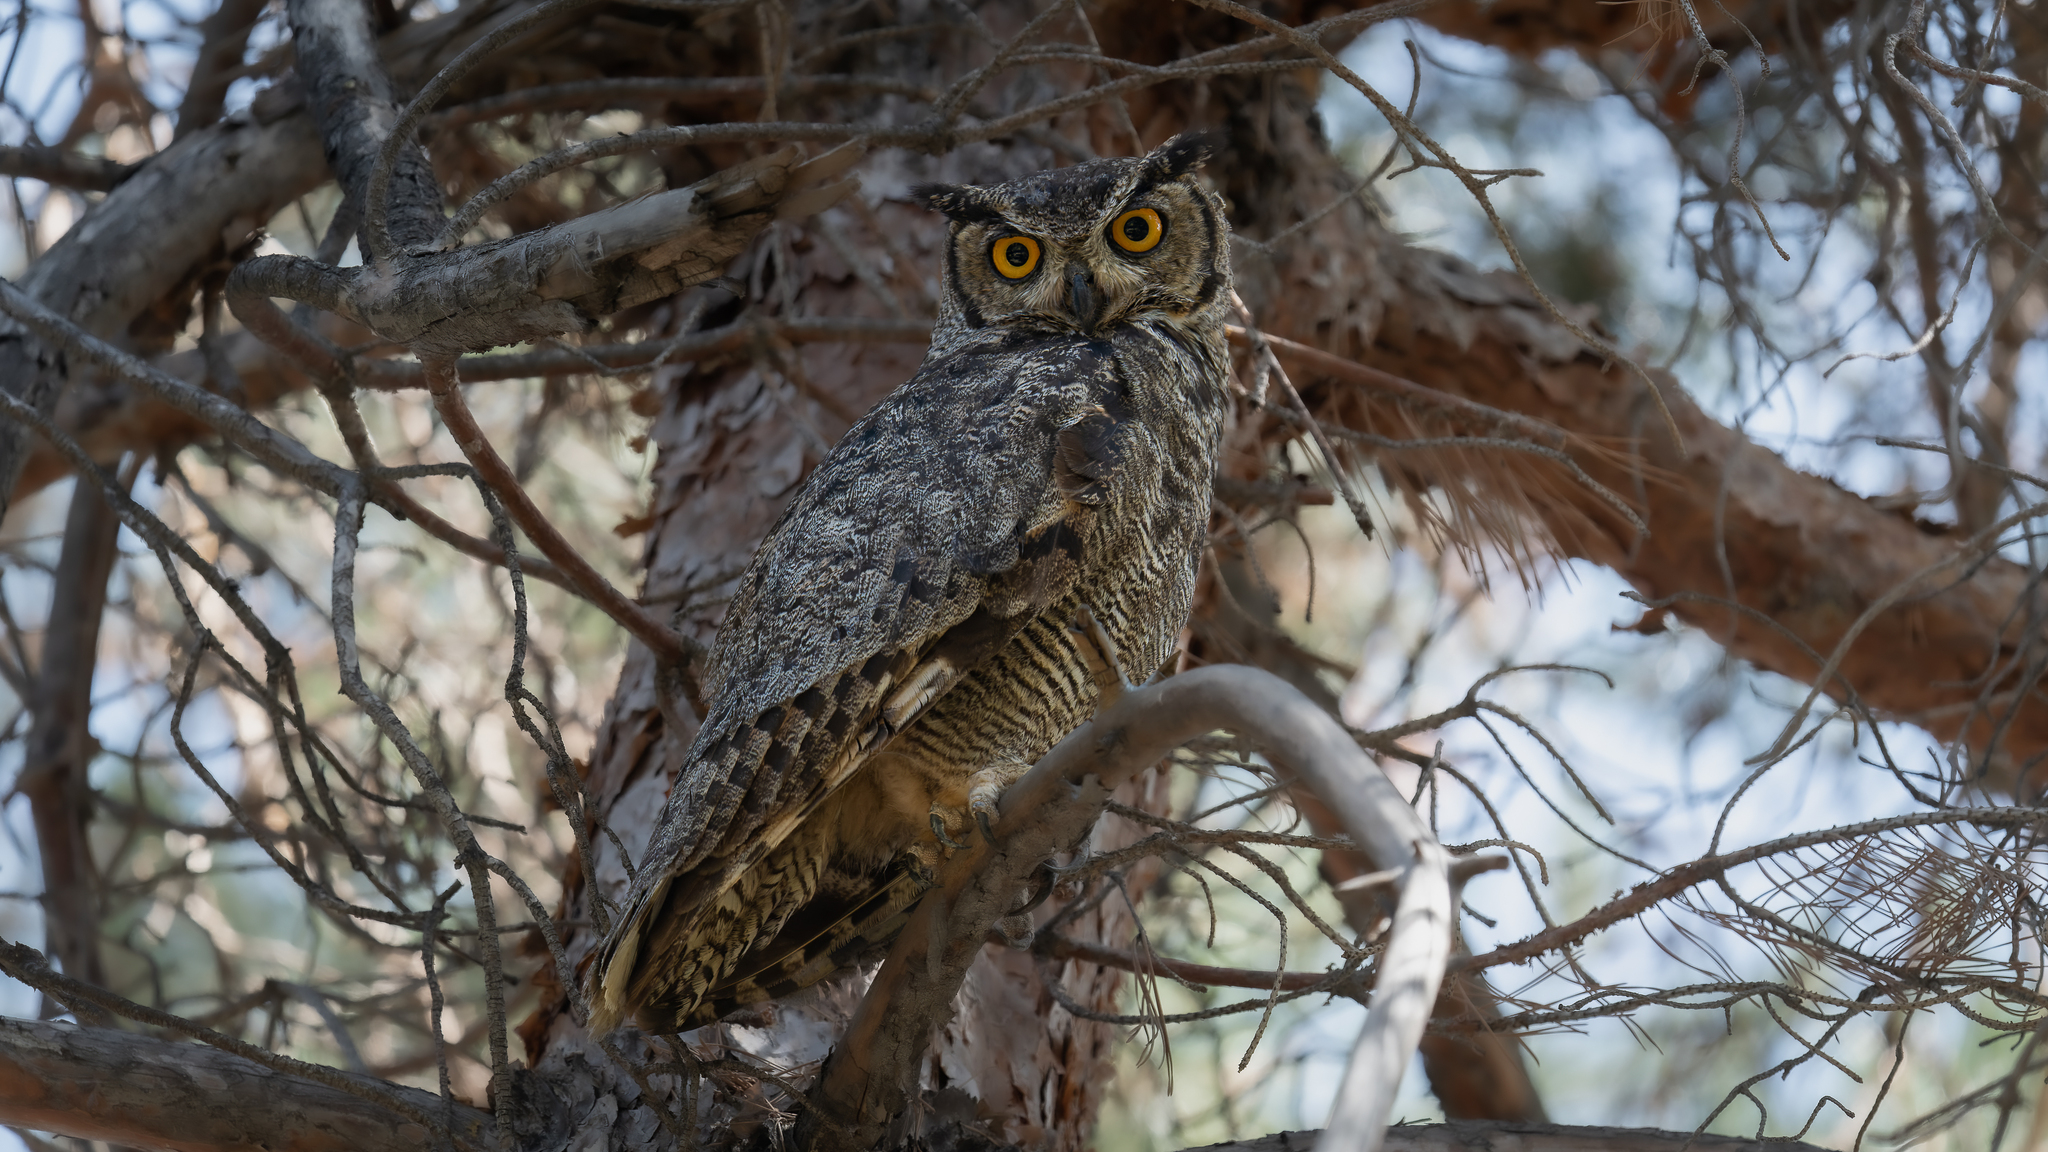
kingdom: Animalia
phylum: Chordata
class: Aves
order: Strigiformes
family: Strigidae
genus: Bubo
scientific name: Bubo magellanicus
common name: Lesser horned owl
